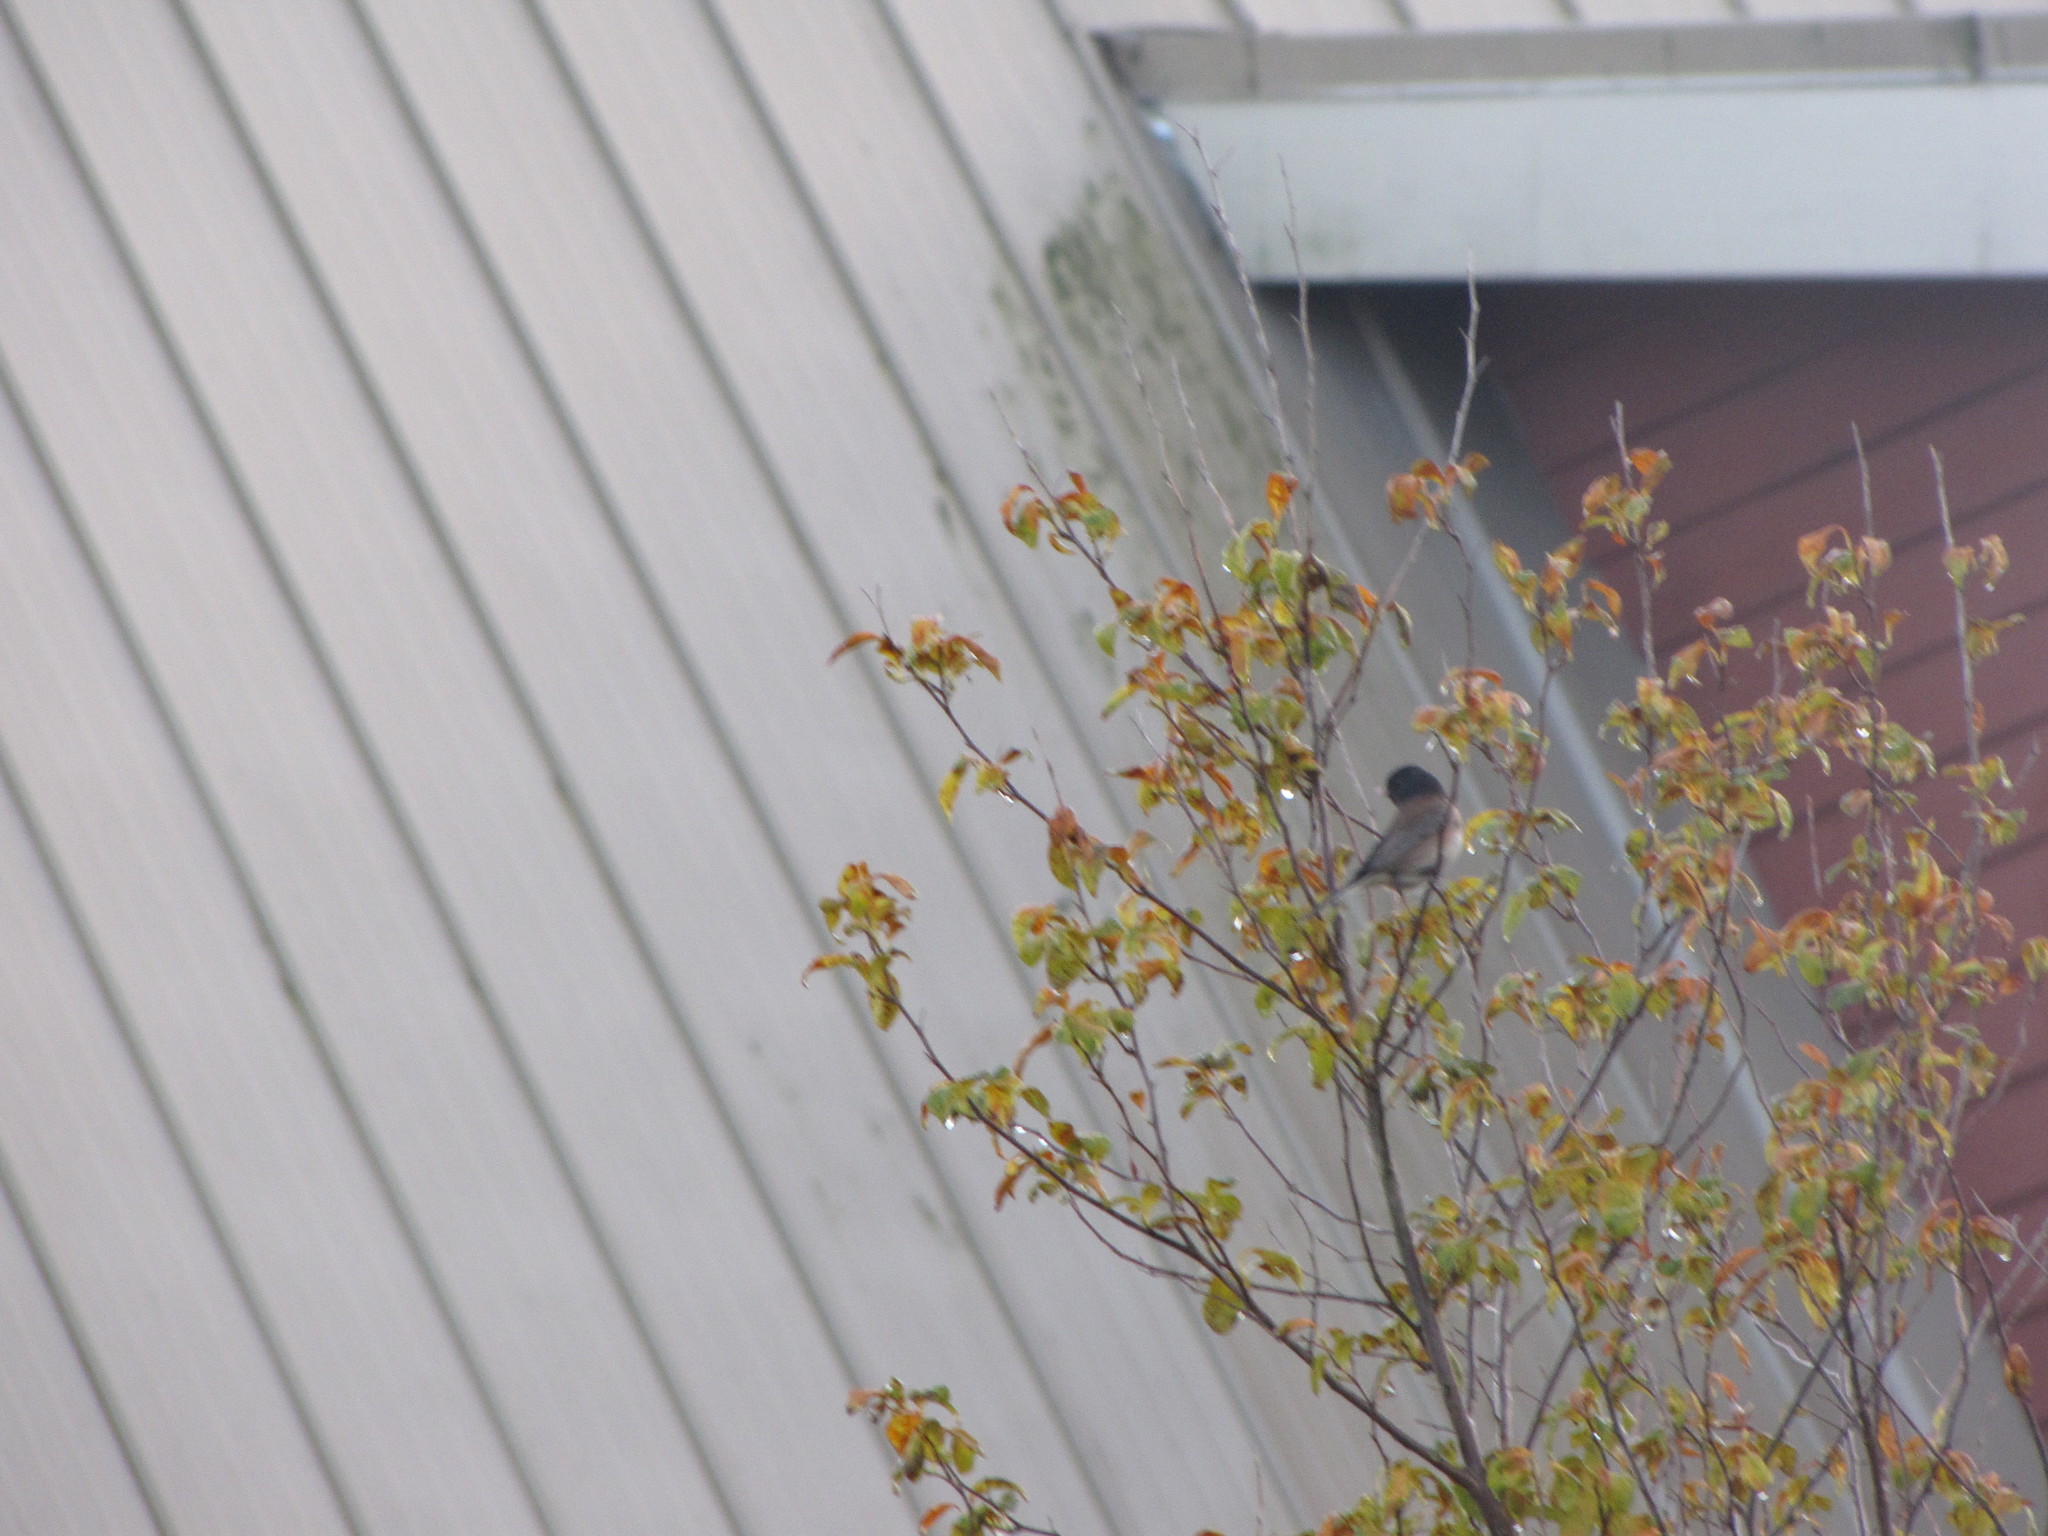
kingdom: Animalia
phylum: Chordata
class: Aves
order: Passeriformes
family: Passerellidae
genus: Junco
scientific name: Junco hyemalis
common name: Dark-eyed junco
